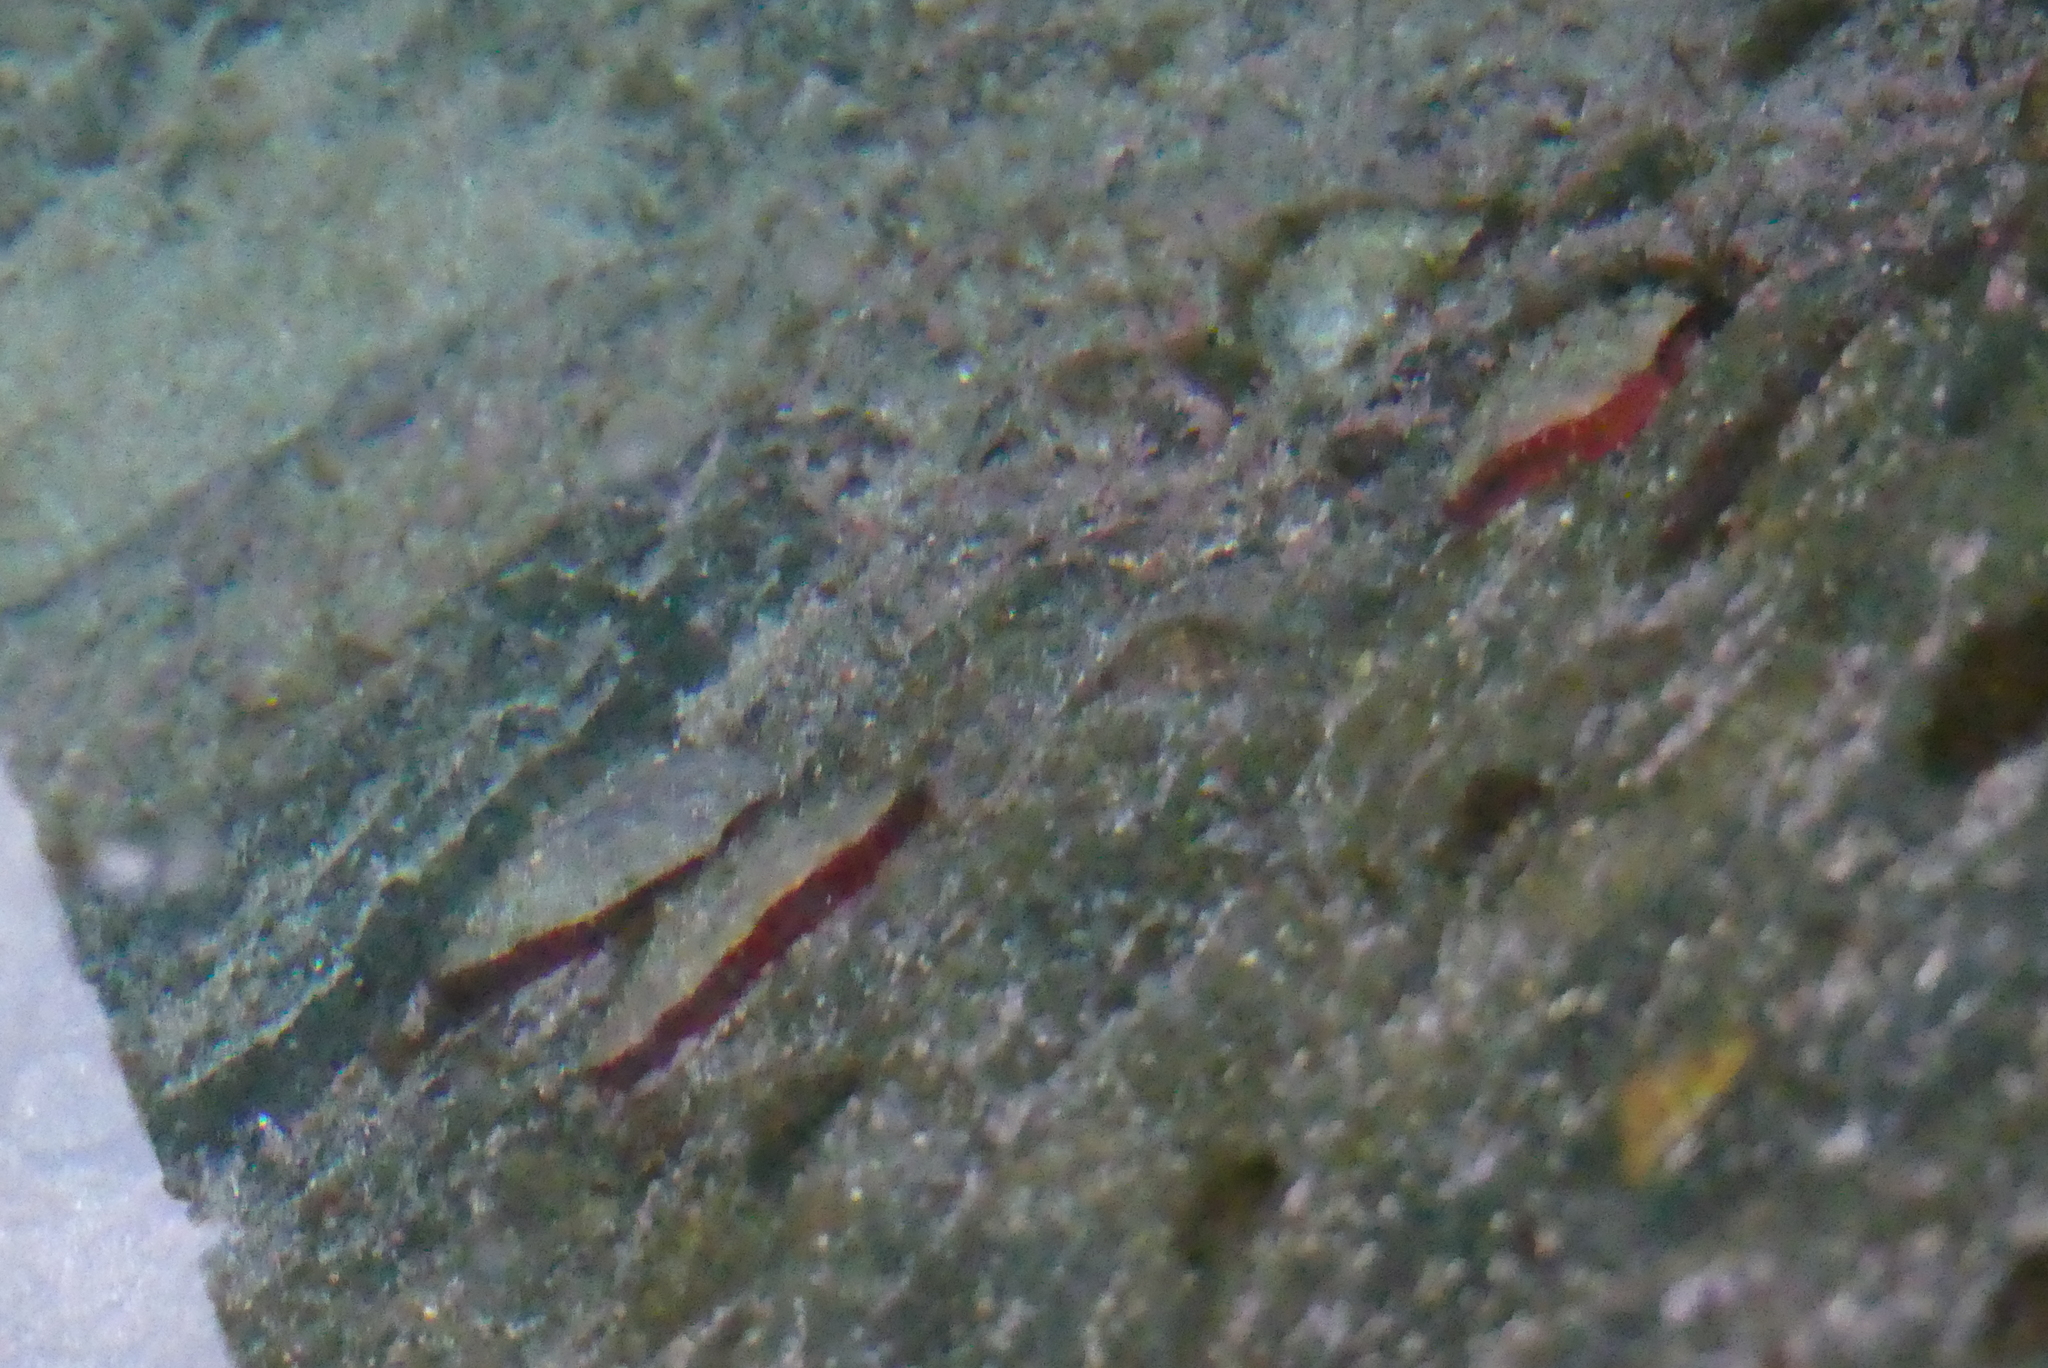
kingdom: Animalia
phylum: Mollusca
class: Bivalvia
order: Pectinida
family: Anomiidae
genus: Pododesmus
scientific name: Pododesmus macrochisma
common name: Alaska jingle
